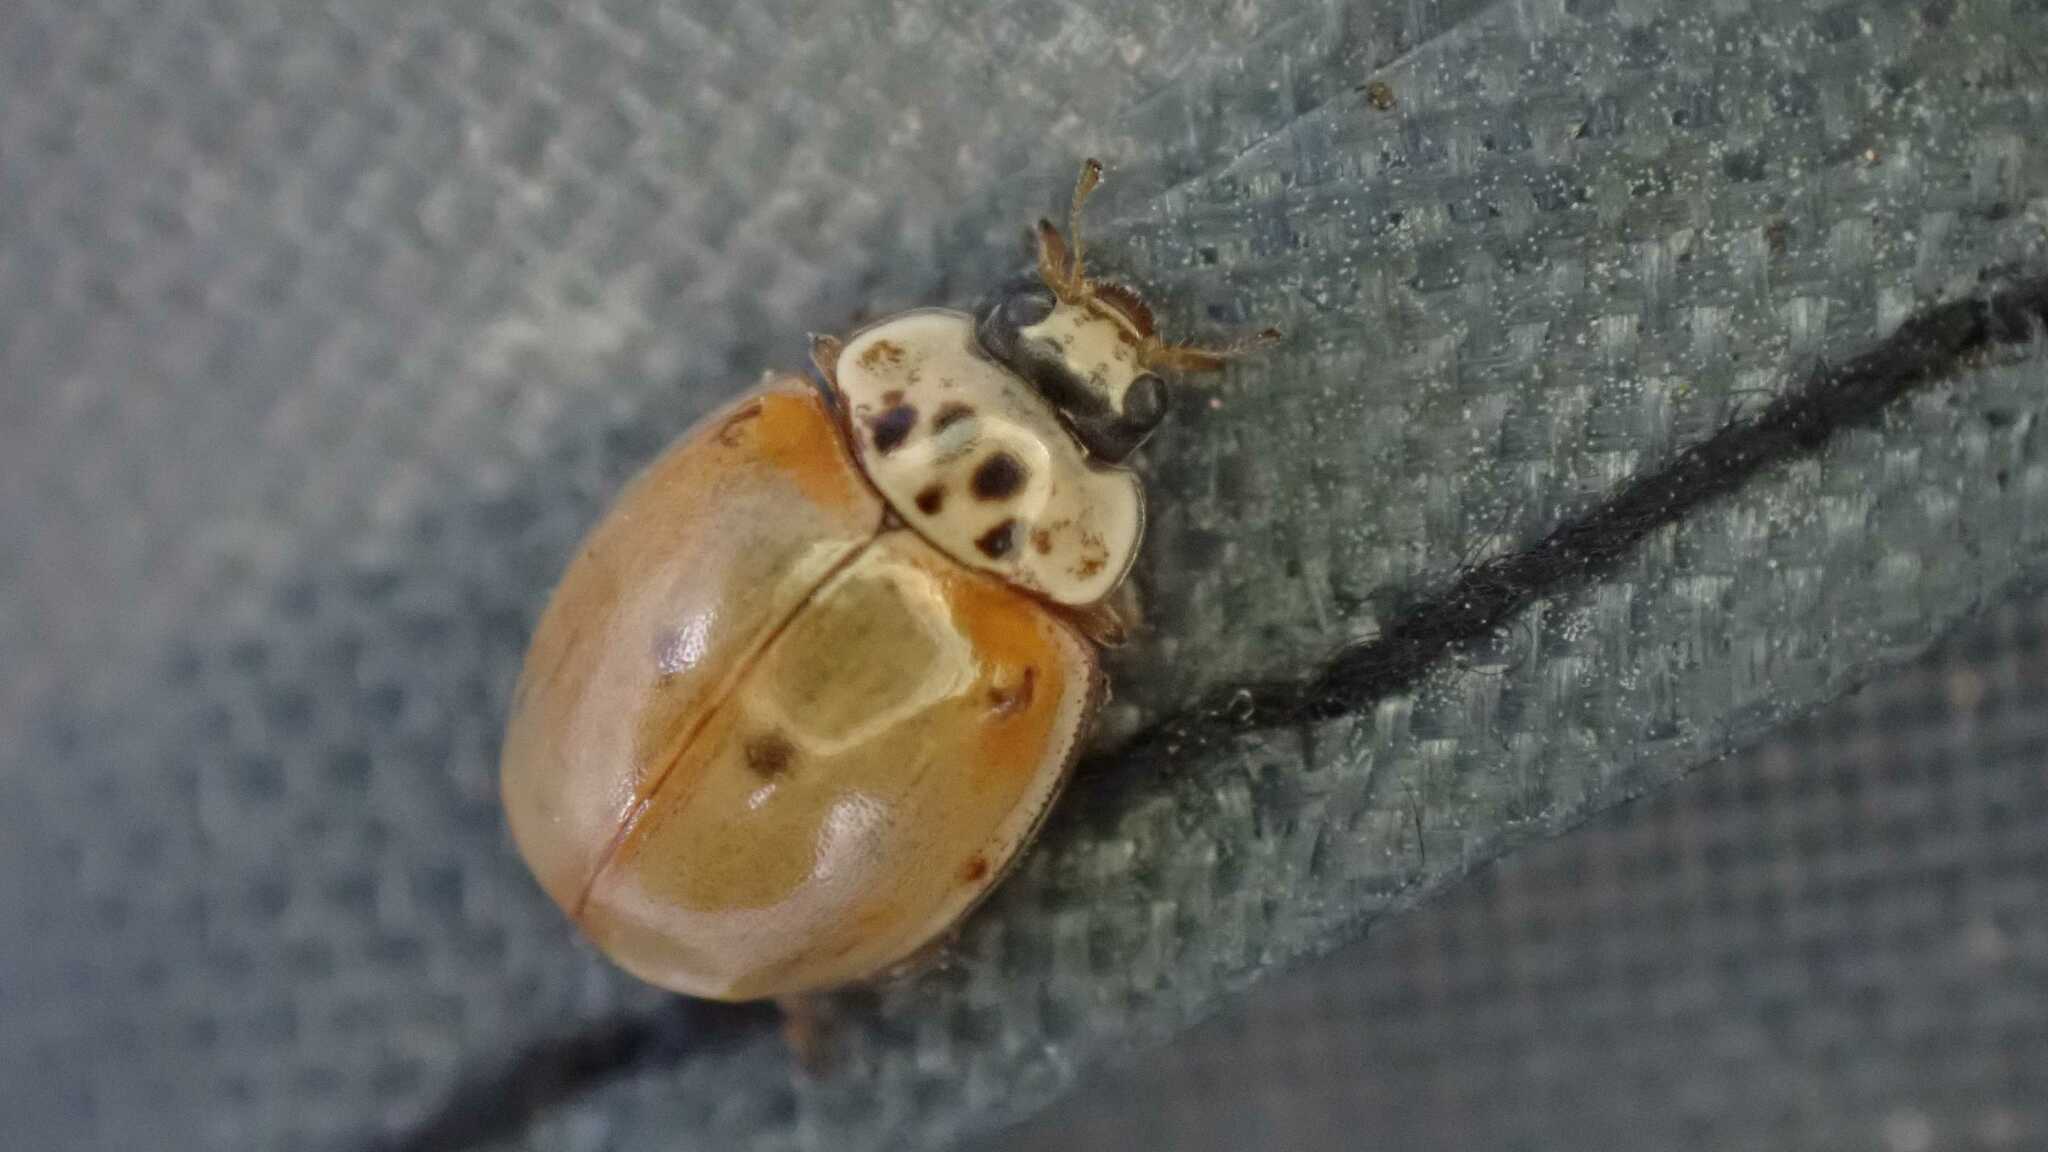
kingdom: Animalia
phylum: Arthropoda
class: Insecta
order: Coleoptera
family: Coccinellidae
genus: Adalia
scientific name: Adalia decempunctata
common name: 10-spot ladybird
